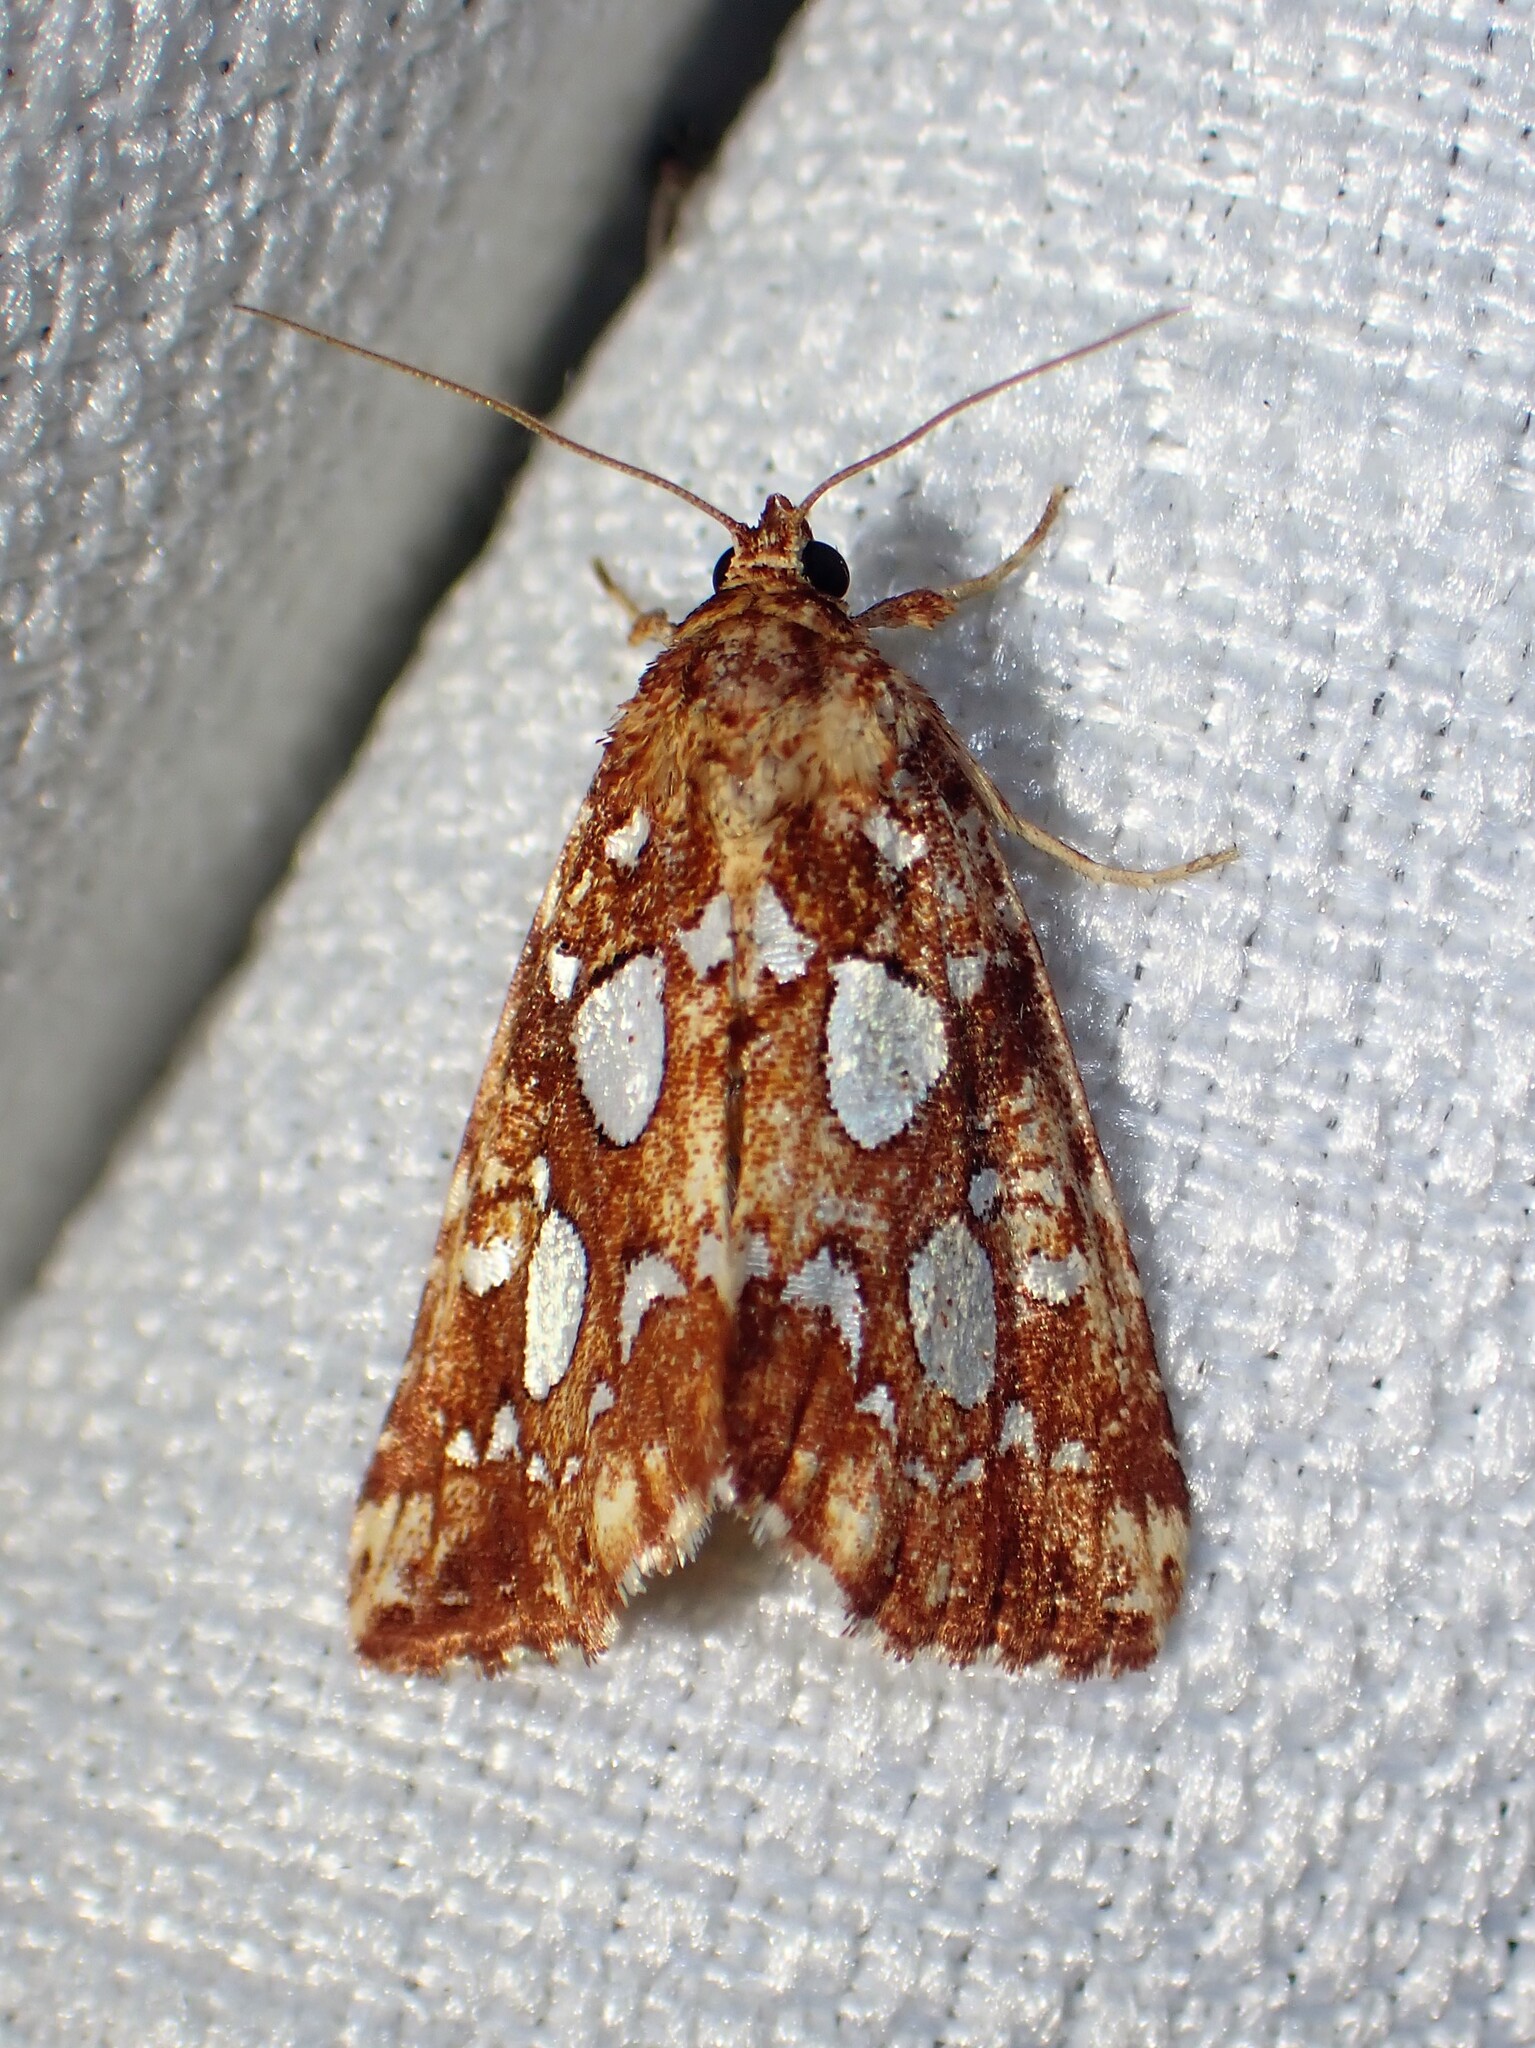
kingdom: Animalia
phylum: Arthropoda
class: Insecta
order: Lepidoptera
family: Noctuidae
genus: Callopistria
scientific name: Callopistria cordata
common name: Silver-spotted fern moth
